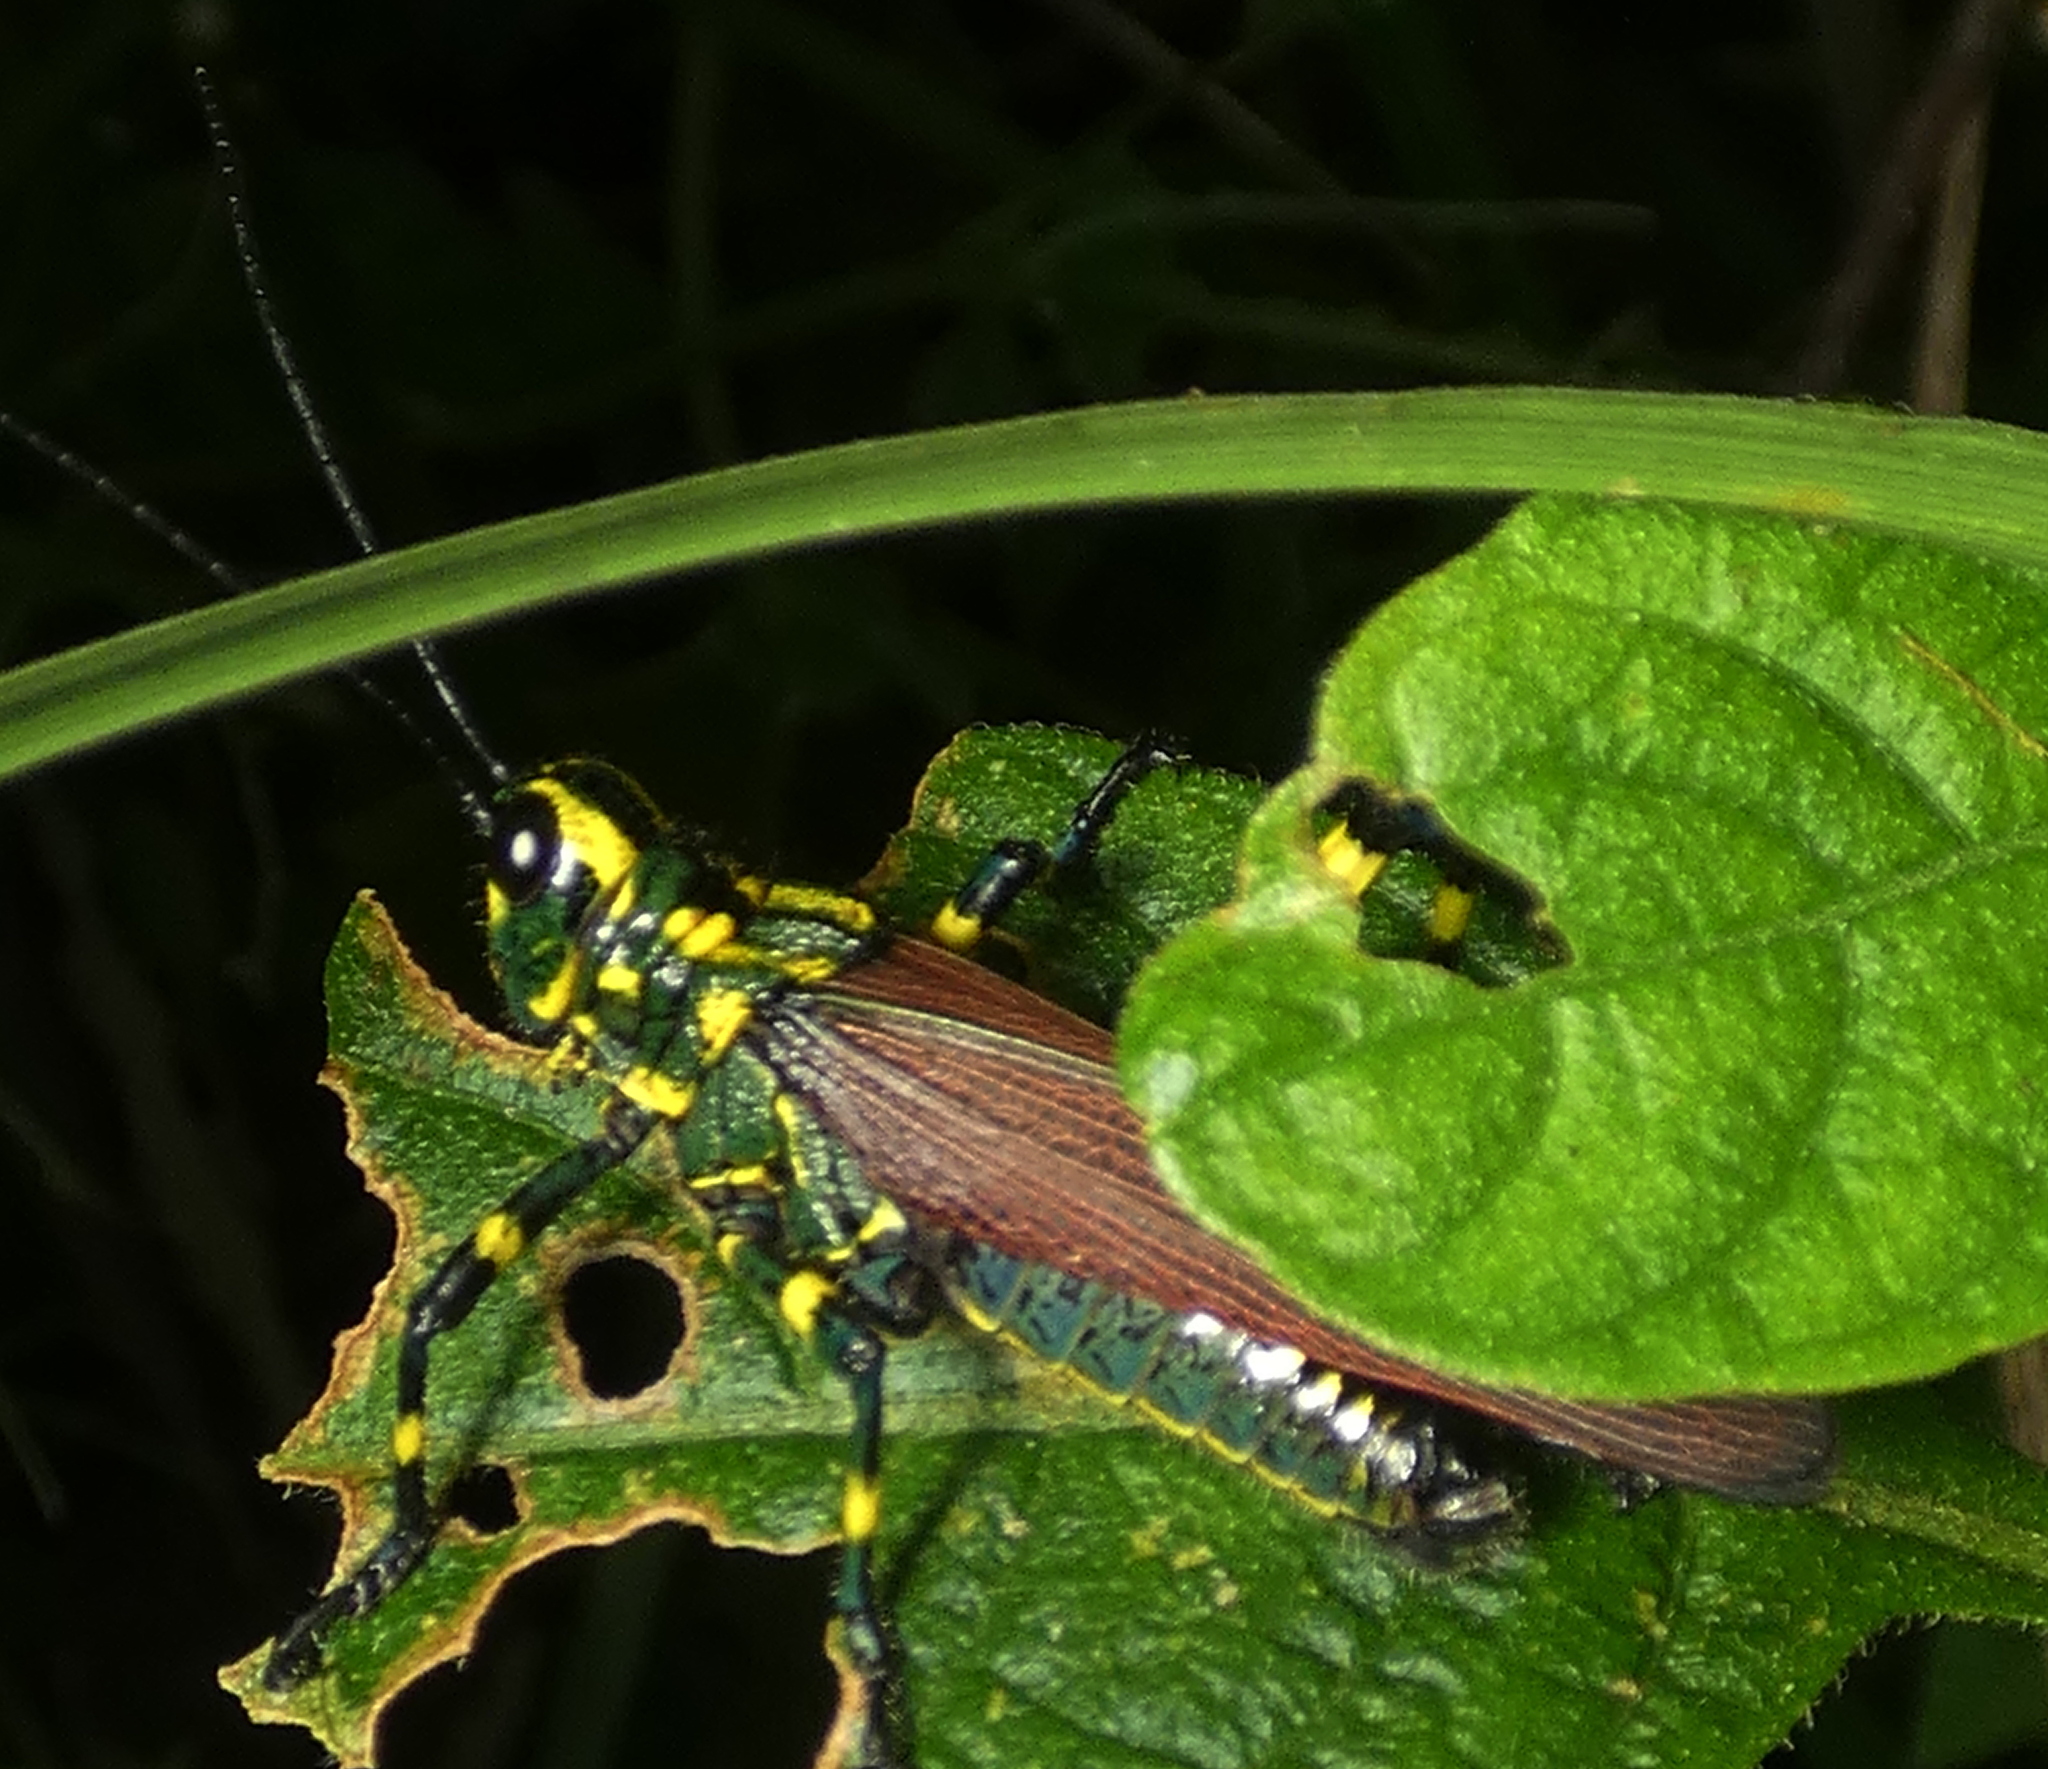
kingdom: Animalia
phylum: Arthropoda
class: Insecta
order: Orthoptera
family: Romaleidae
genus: Chromacris
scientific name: Chromacris speciosa
